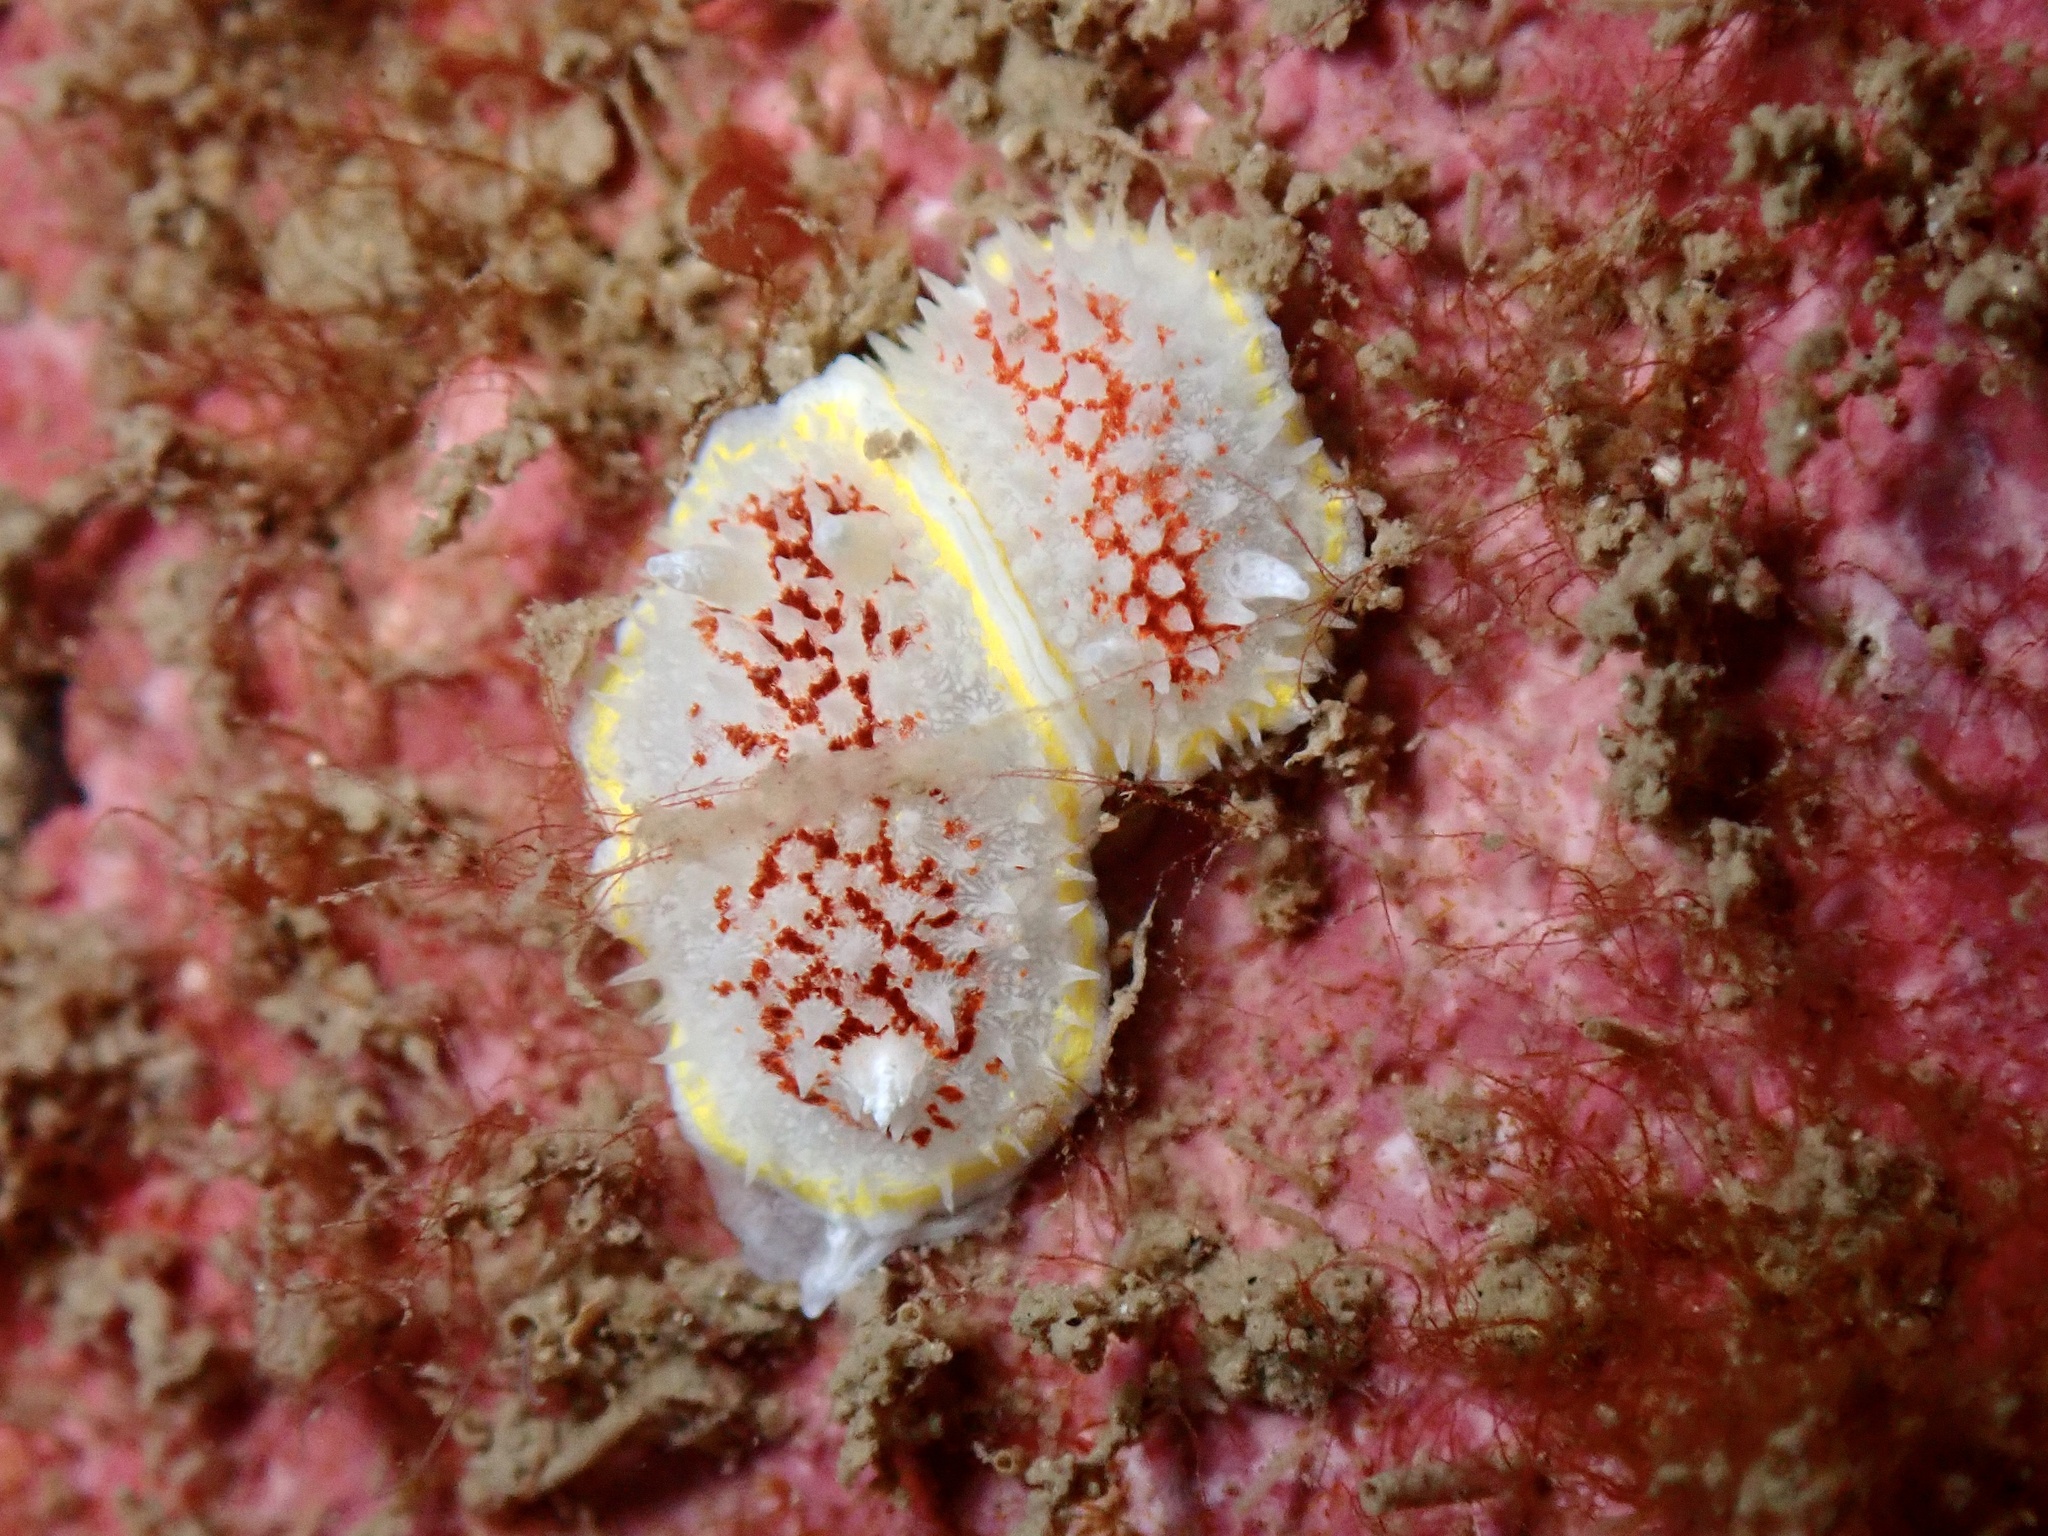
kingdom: Animalia
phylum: Mollusca
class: Gastropoda
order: Nudibranchia
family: Calycidorididae
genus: Diaphorodoris
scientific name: Diaphorodoris luteocincta
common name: Fried egg nudibranch
